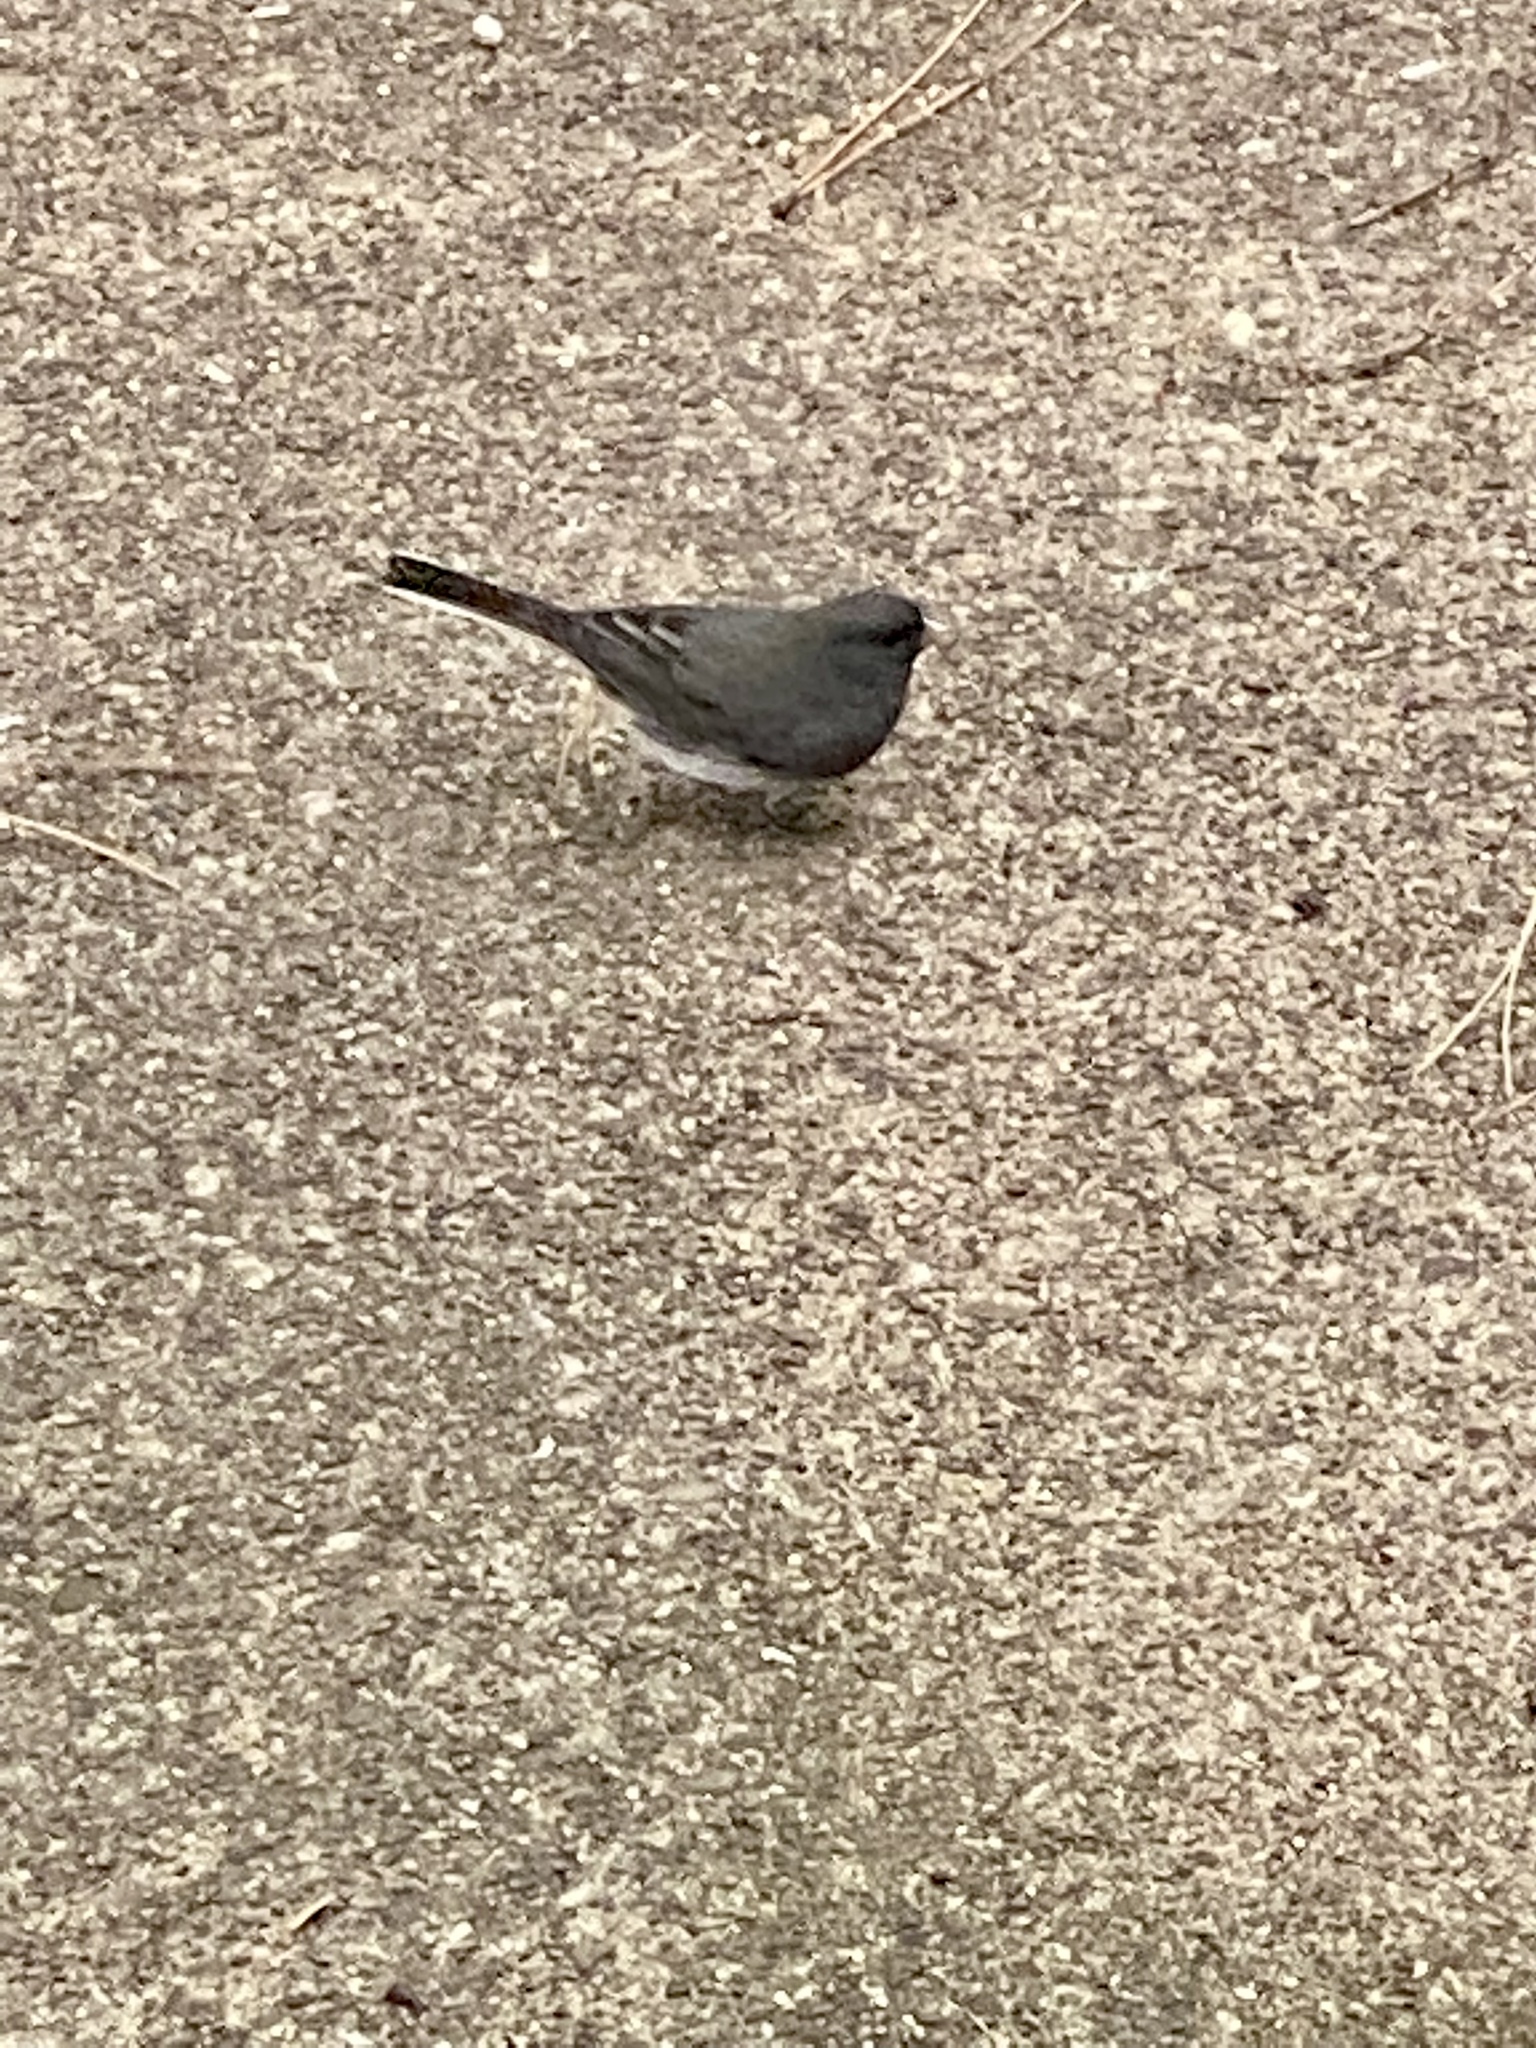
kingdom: Animalia
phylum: Chordata
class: Aves
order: Passeriformes
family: Passerellidae
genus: Junco
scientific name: Junco hyemalis
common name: Dark-eyed junco
